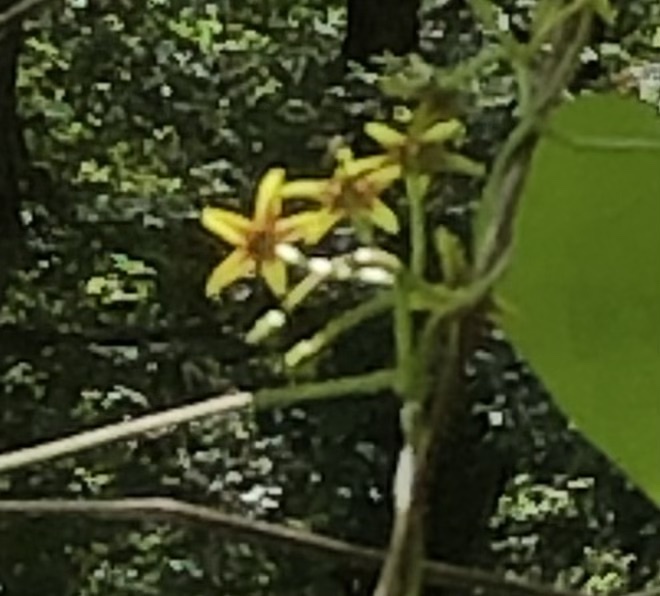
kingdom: Plantae
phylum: Tracheophyta
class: Magnoliopsida
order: Gentianales
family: Apocynaceae
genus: Gonolobus
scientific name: Gonolobus suberosus
